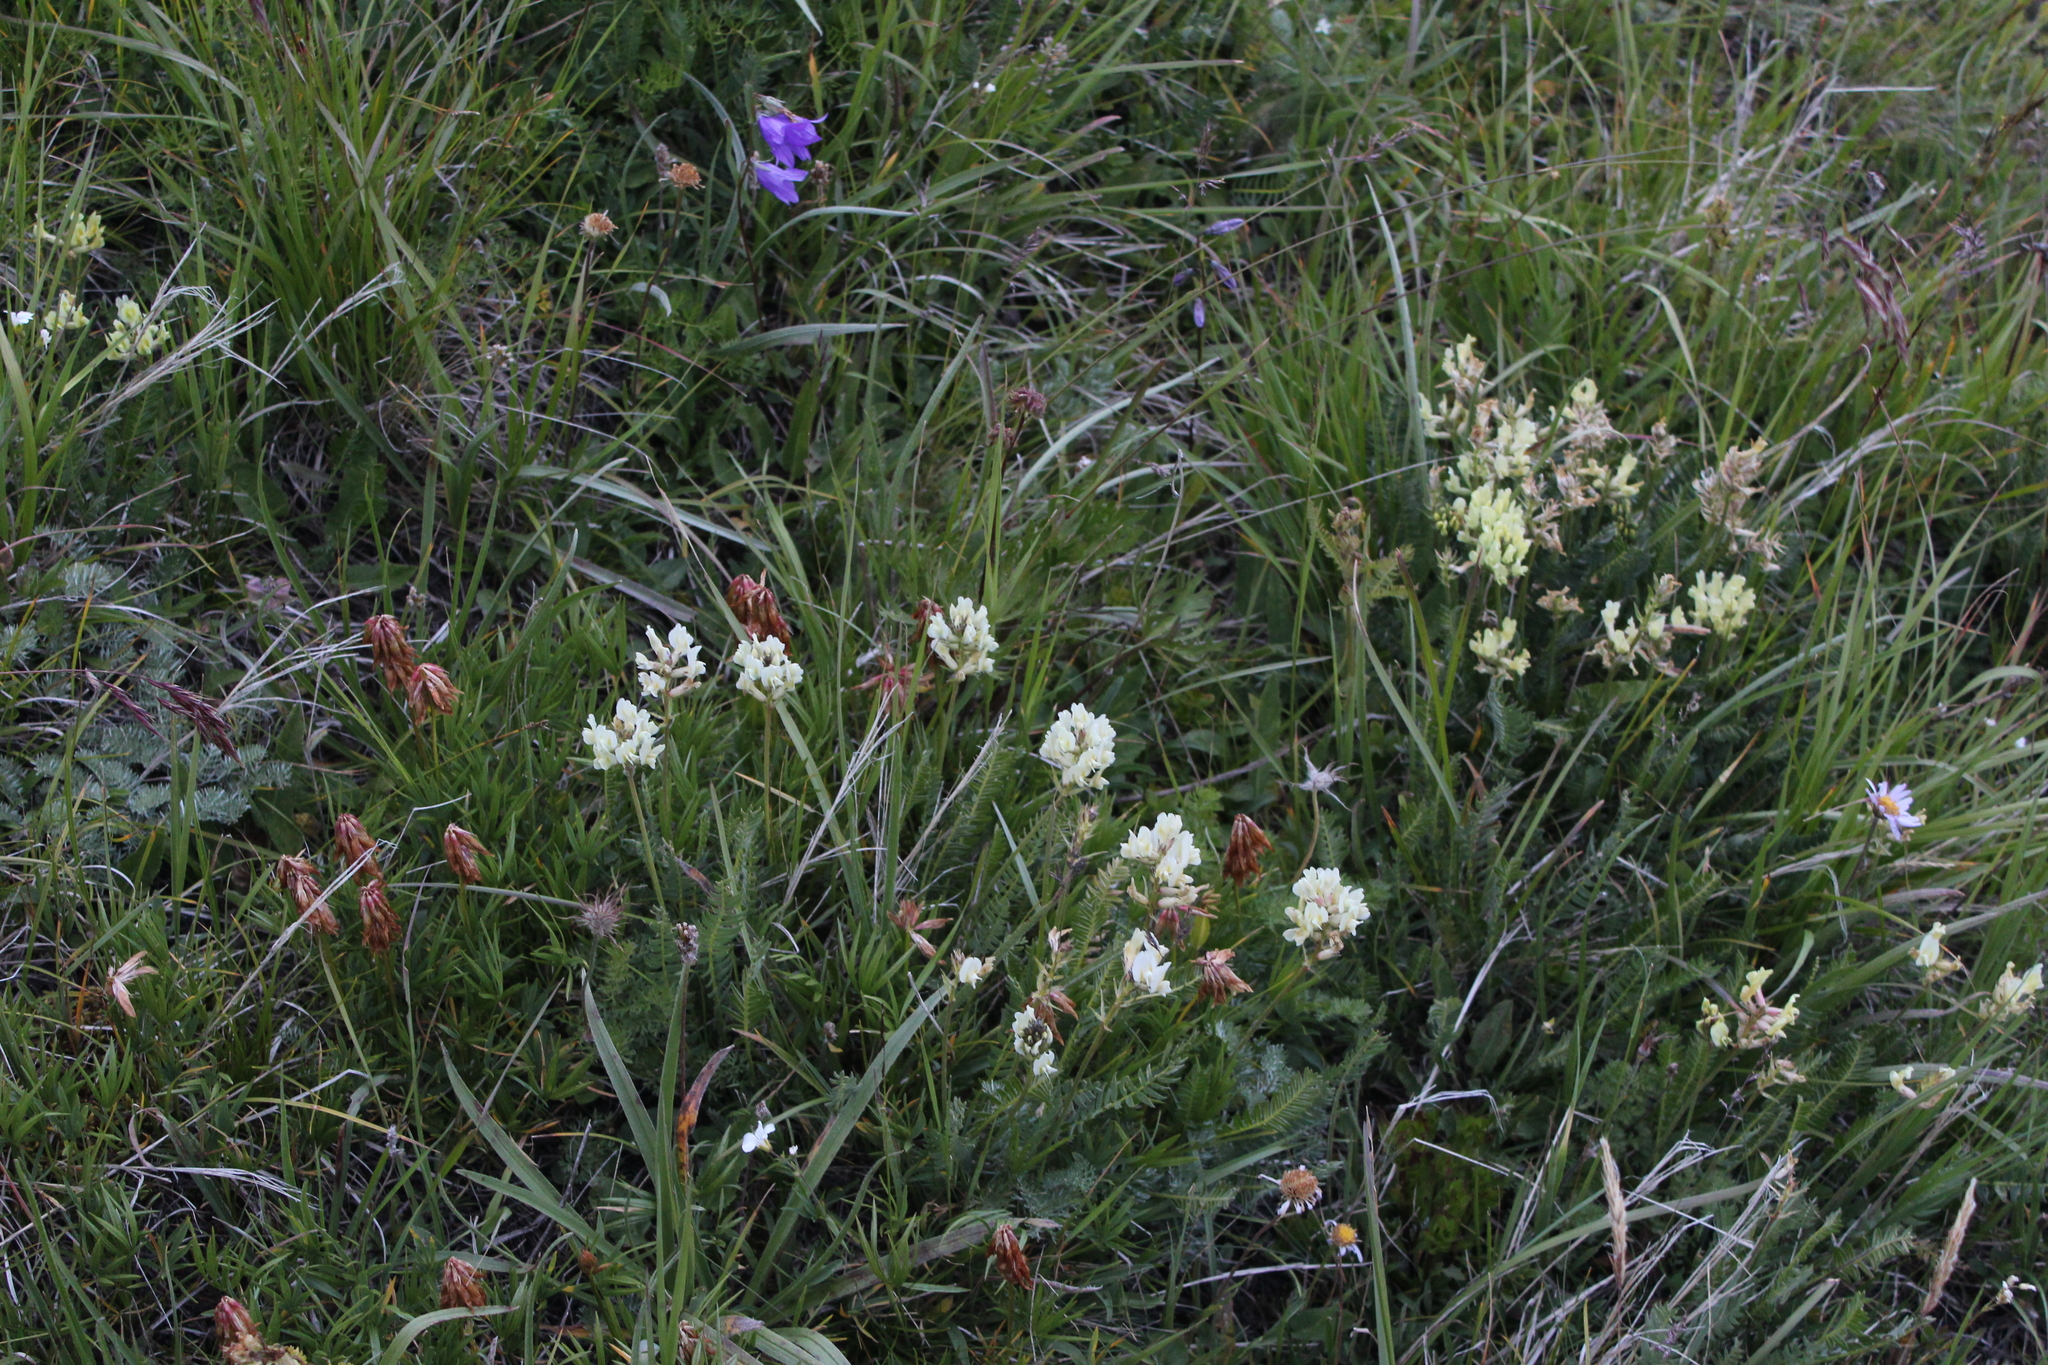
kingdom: Plantae
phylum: Tracheophyta
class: Magnoliopsida
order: Fabales
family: Fabaceae
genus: Oxytropis
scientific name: Oxytropis kubanensis
